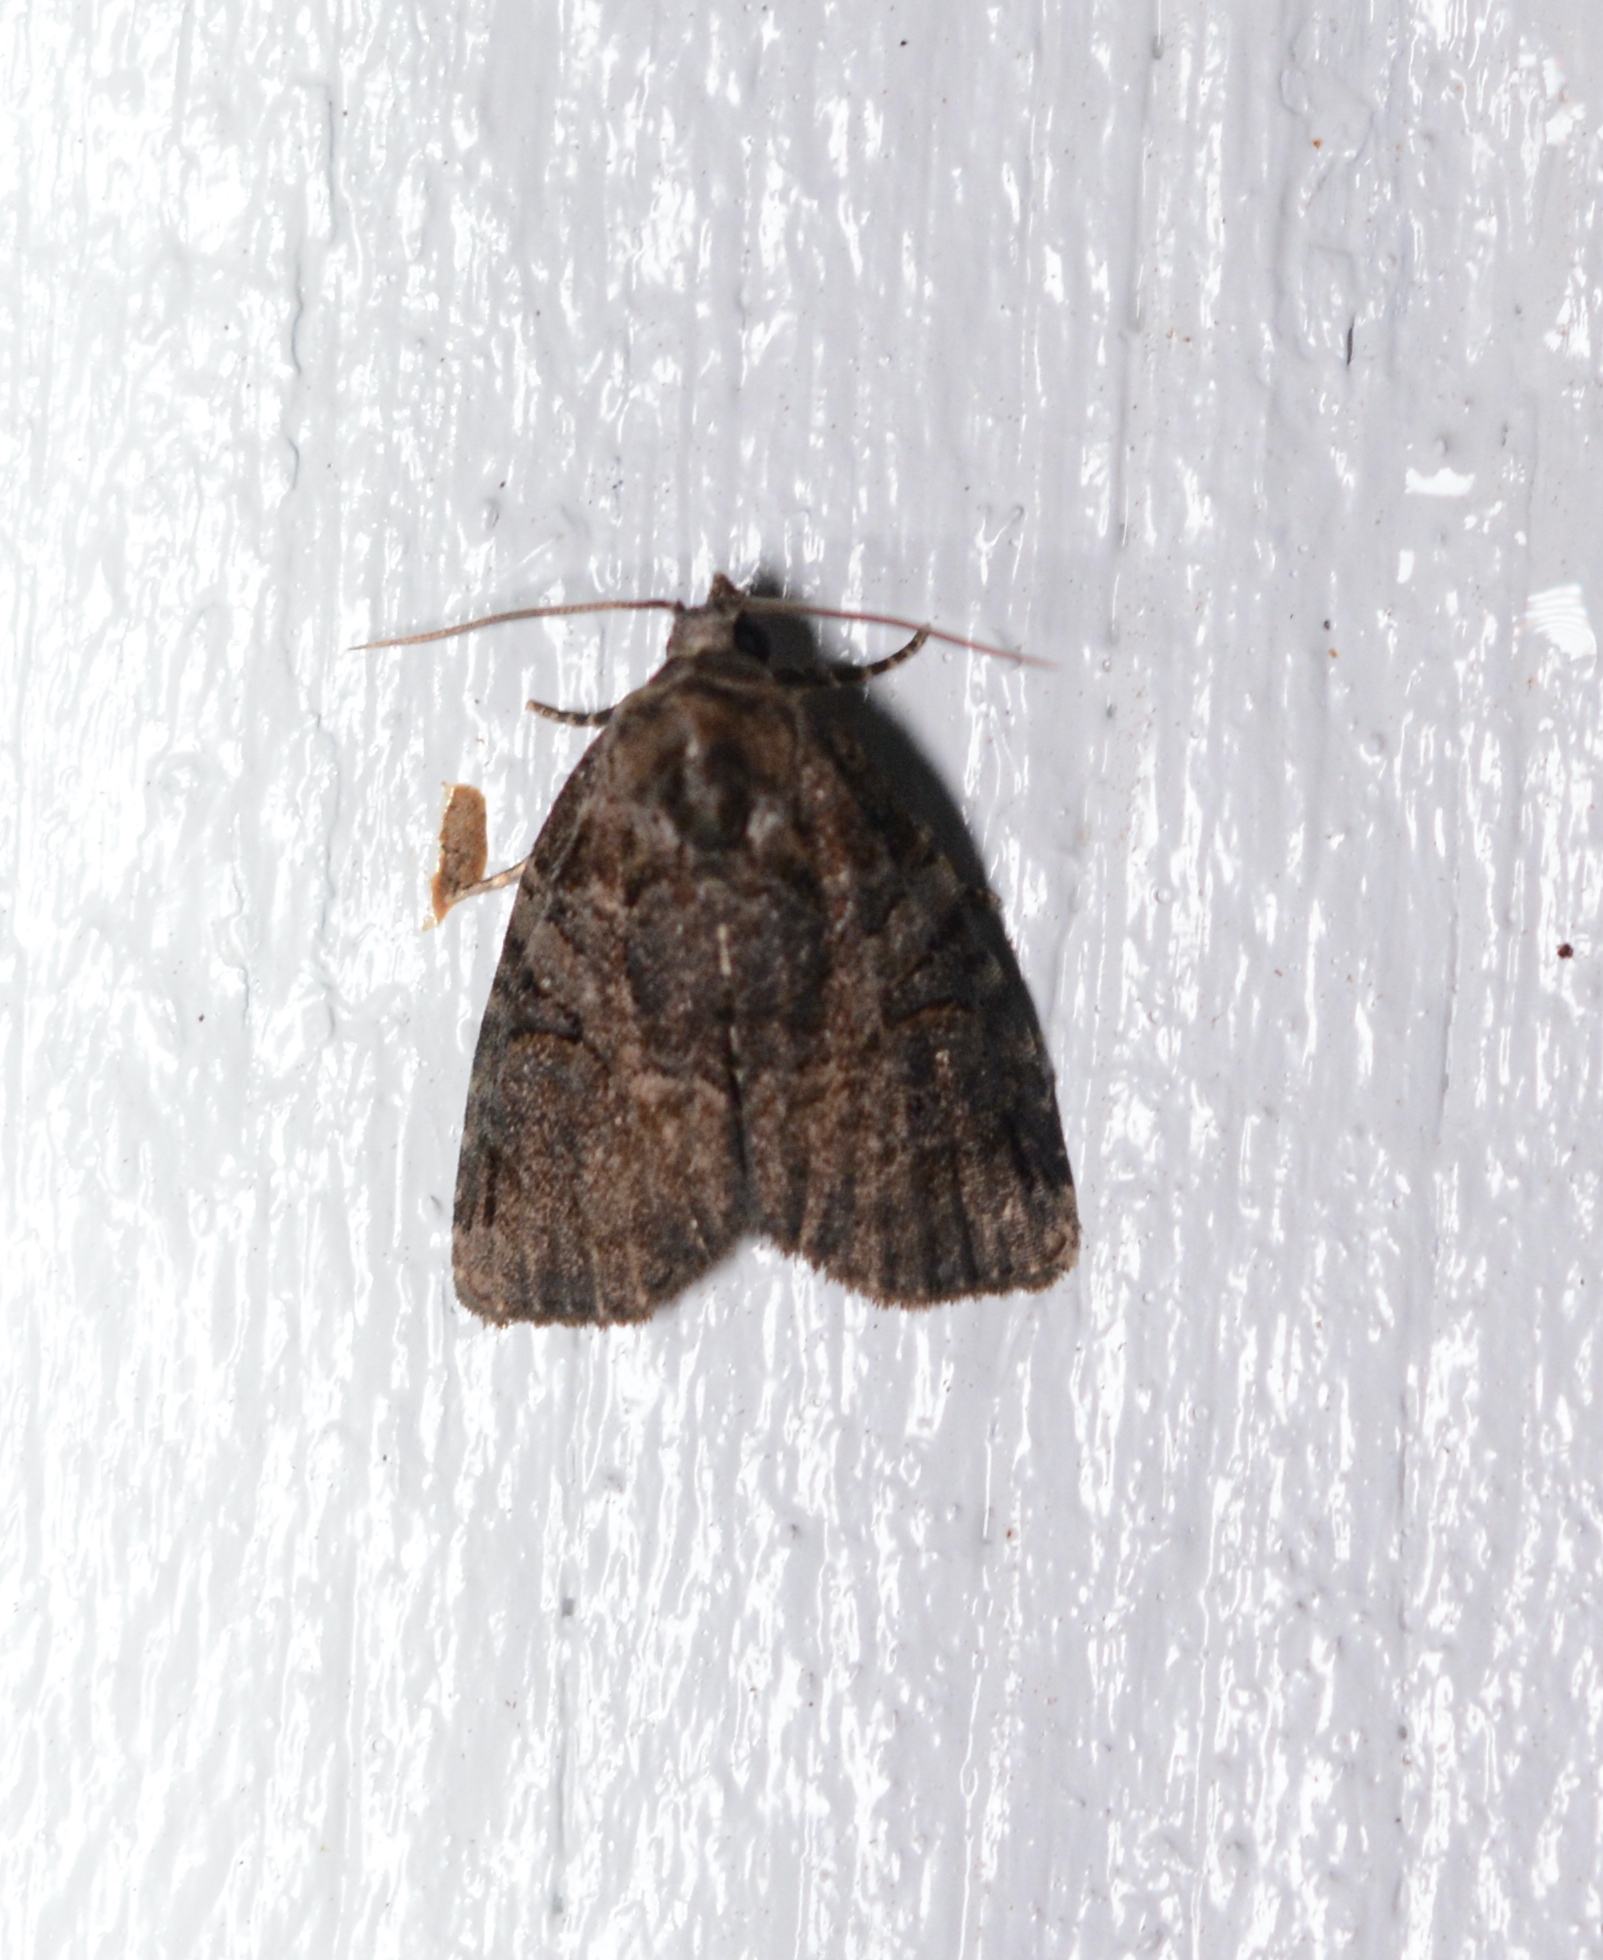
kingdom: Animalia
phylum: Arthropoda
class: Insecta
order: Lepidoptera
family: Noctuidae
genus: Pseudeustrotia
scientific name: Pseudeustrotia indeterminata
